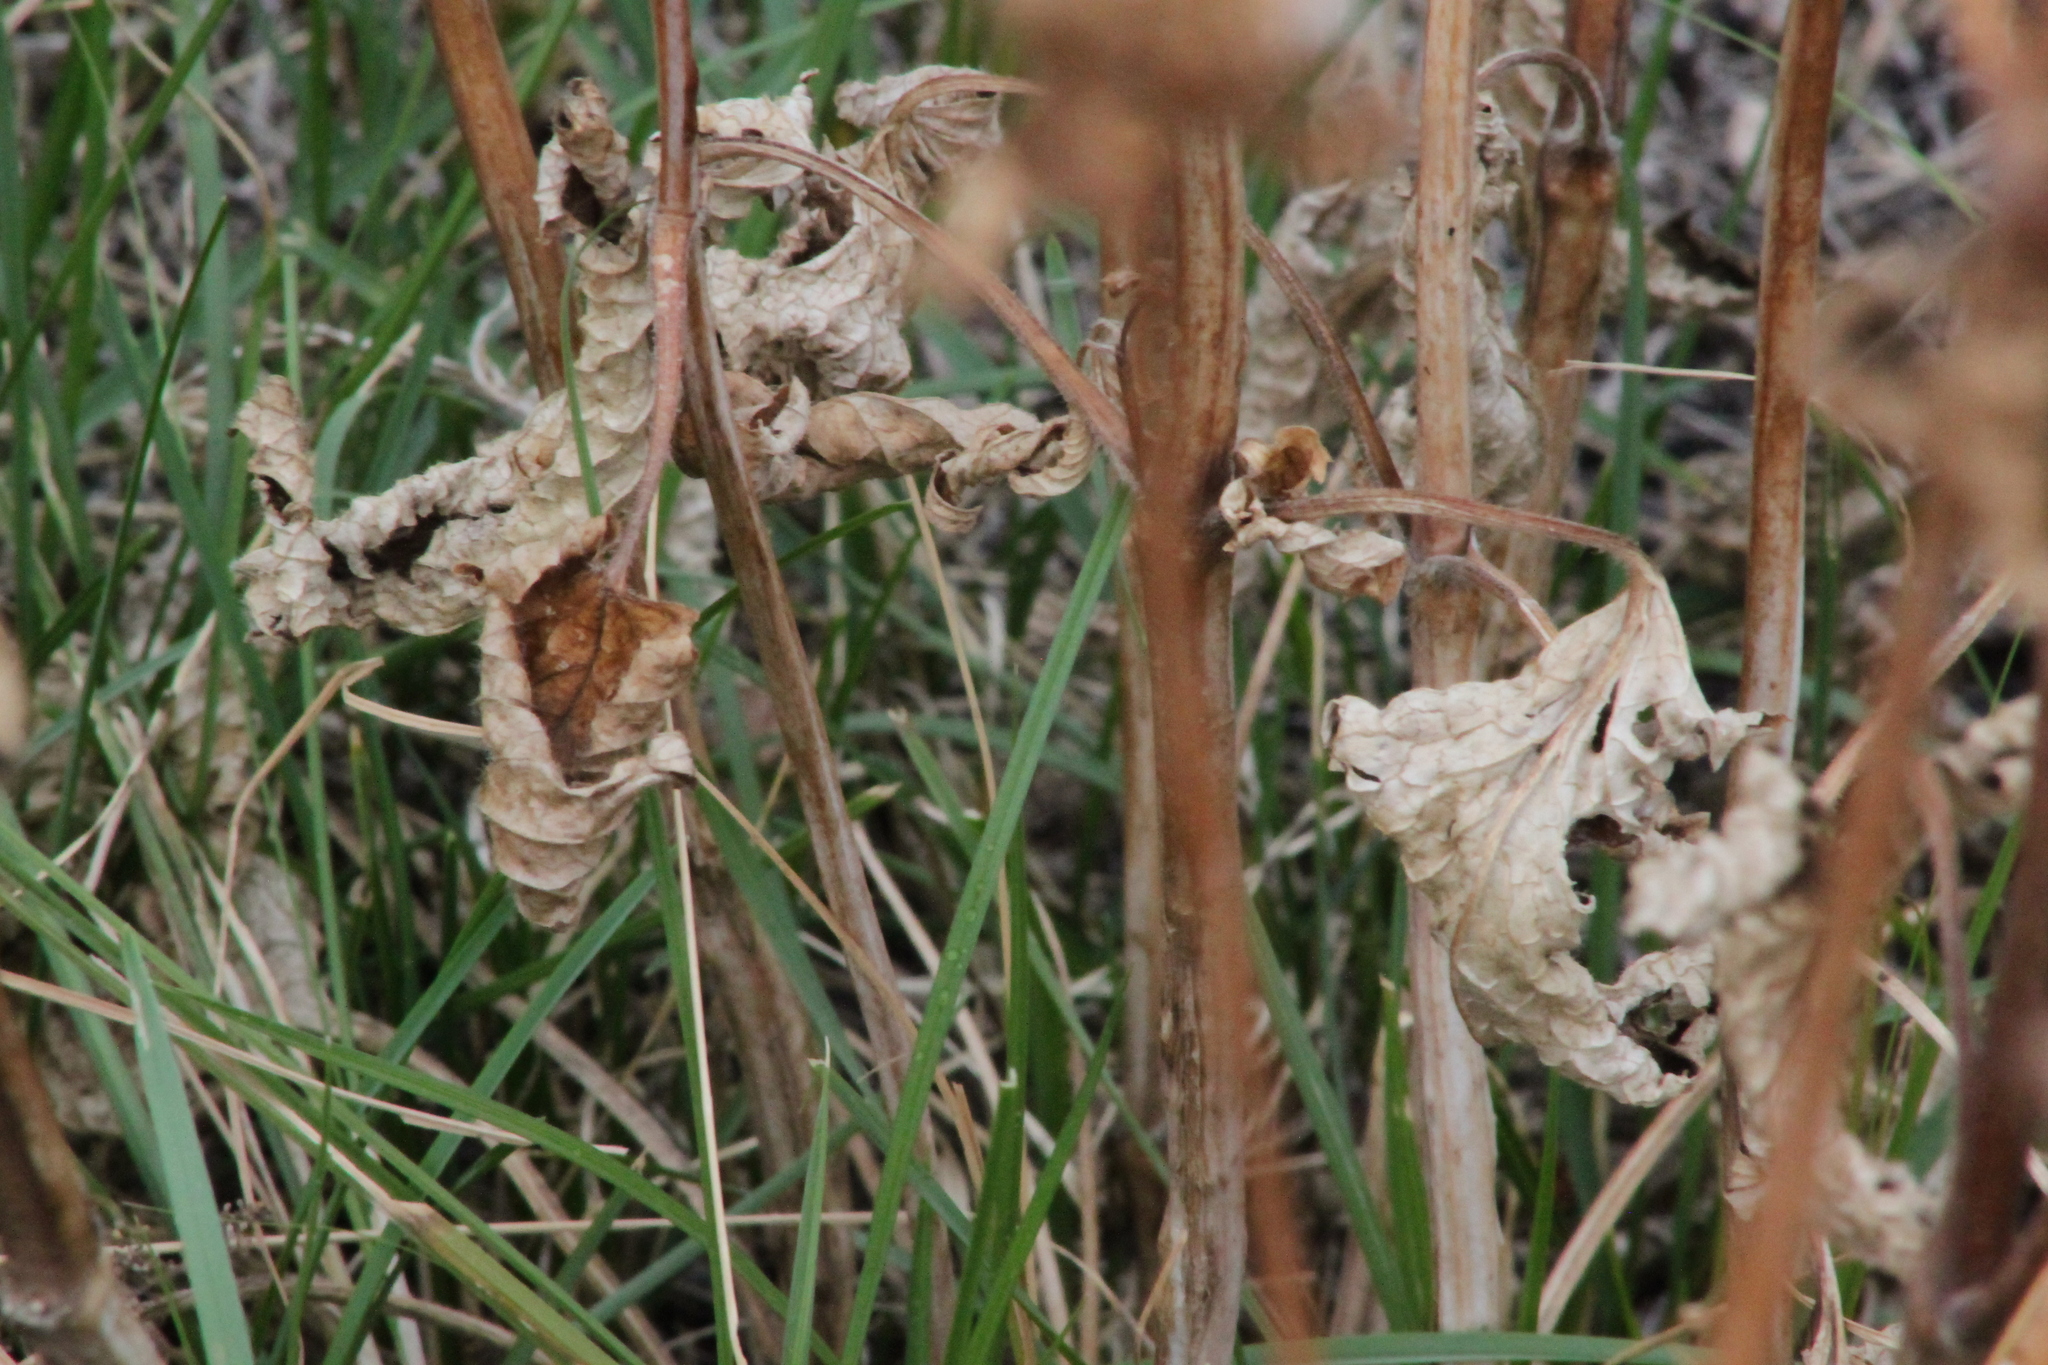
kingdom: Plantae
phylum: Tracheophyta
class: Magnoliopsida
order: Lamiales
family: Lamiaceae
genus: Phlomoides
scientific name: Phlomoides tuberosa
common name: Tuberous jerusalem sage
